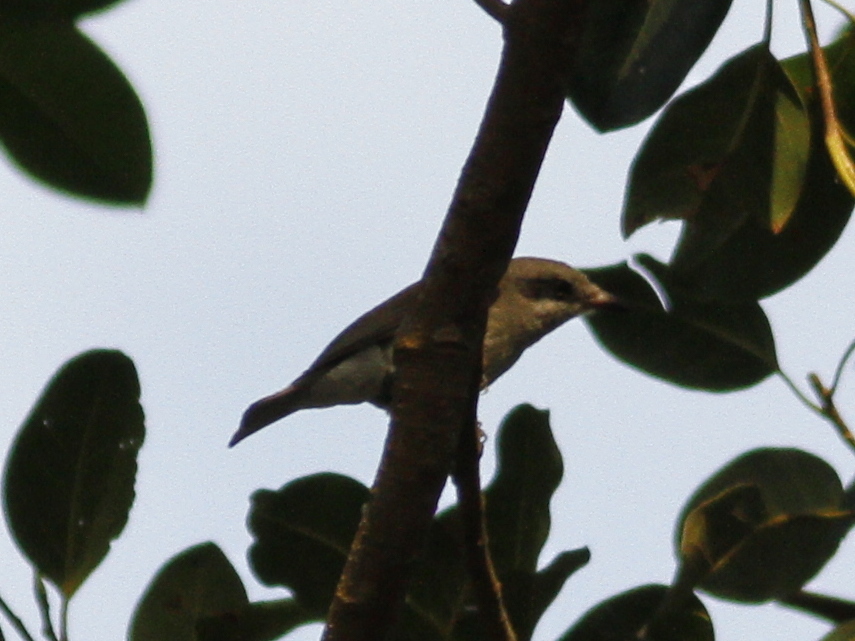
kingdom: Animalia
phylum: Chordata
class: Aves
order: Passeriformes
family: Tephrodornithidae
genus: Tephrodornis
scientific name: Tephrodornis virgatus
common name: Large woodshrike
